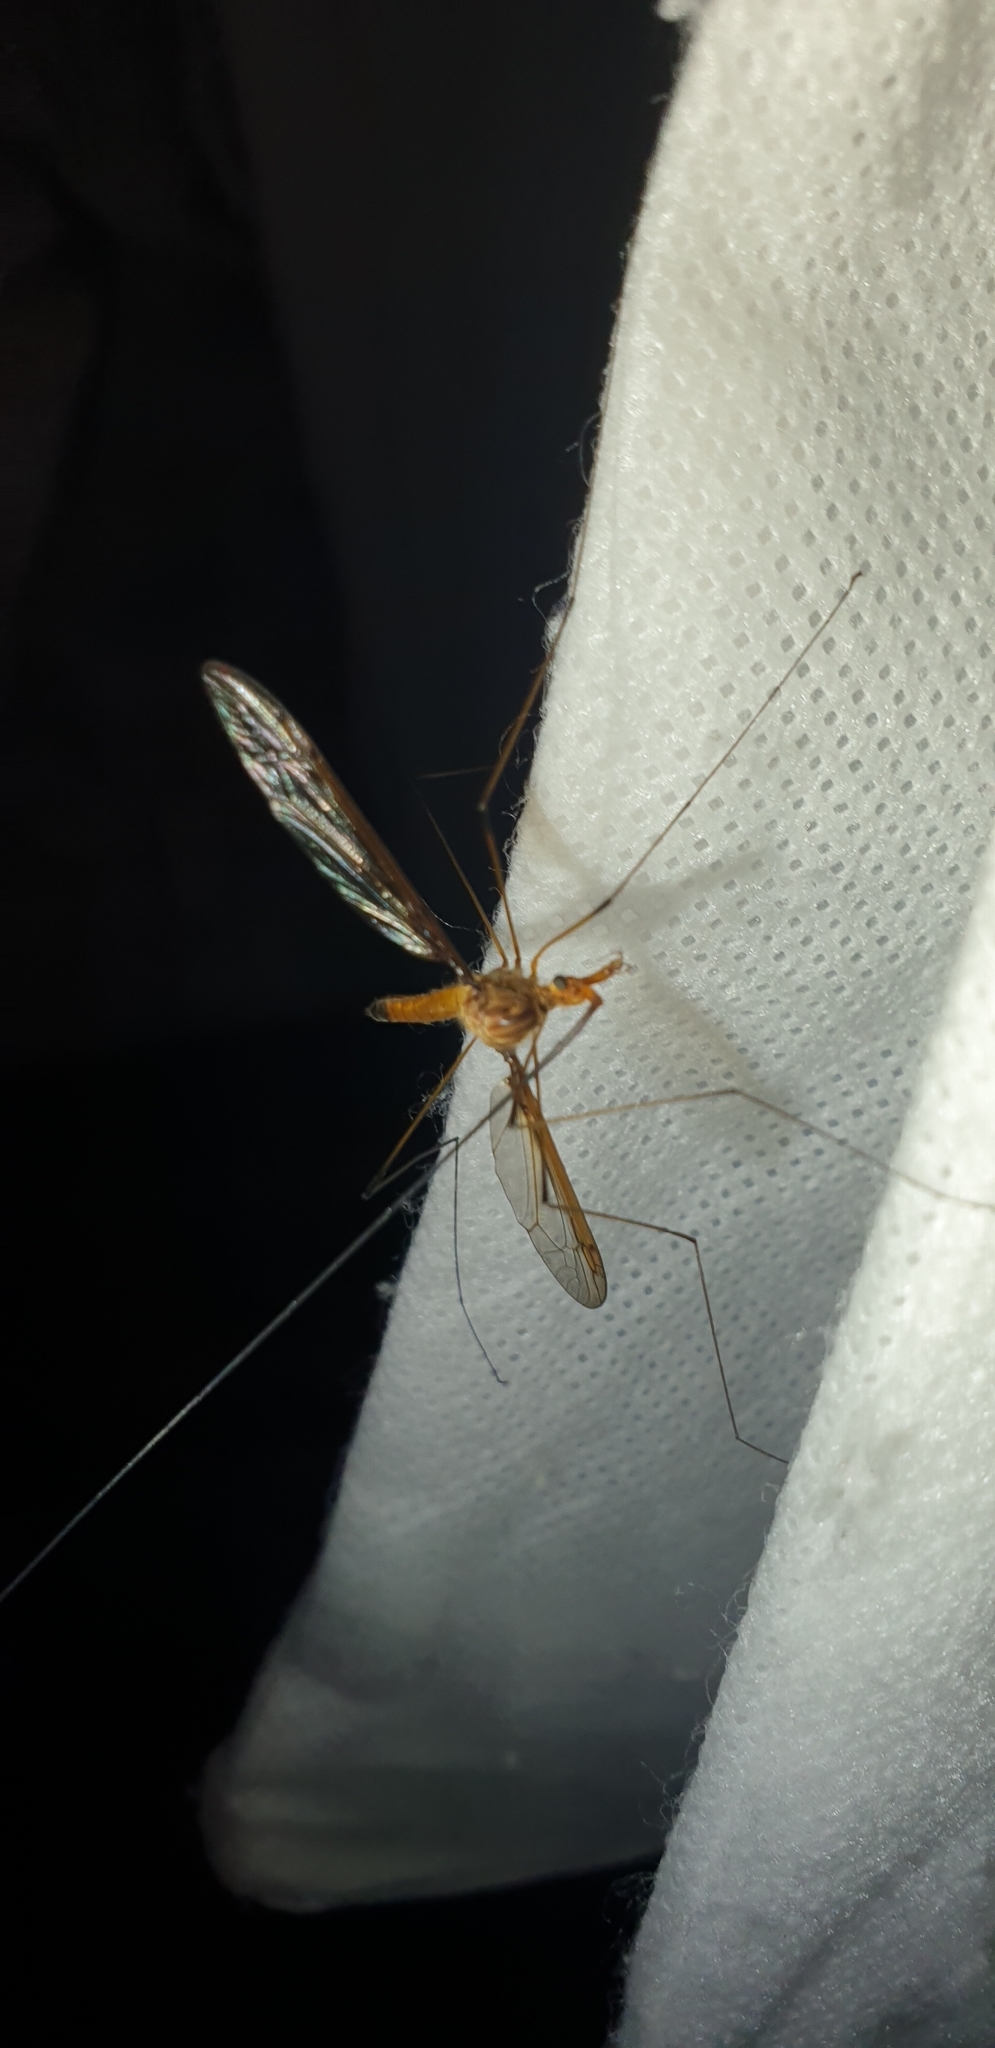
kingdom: Animalia
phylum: Arthropoda
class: Insecta
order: Diptera
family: Tipulidae
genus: Leptotarsus
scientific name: Leptotarsus costalis
